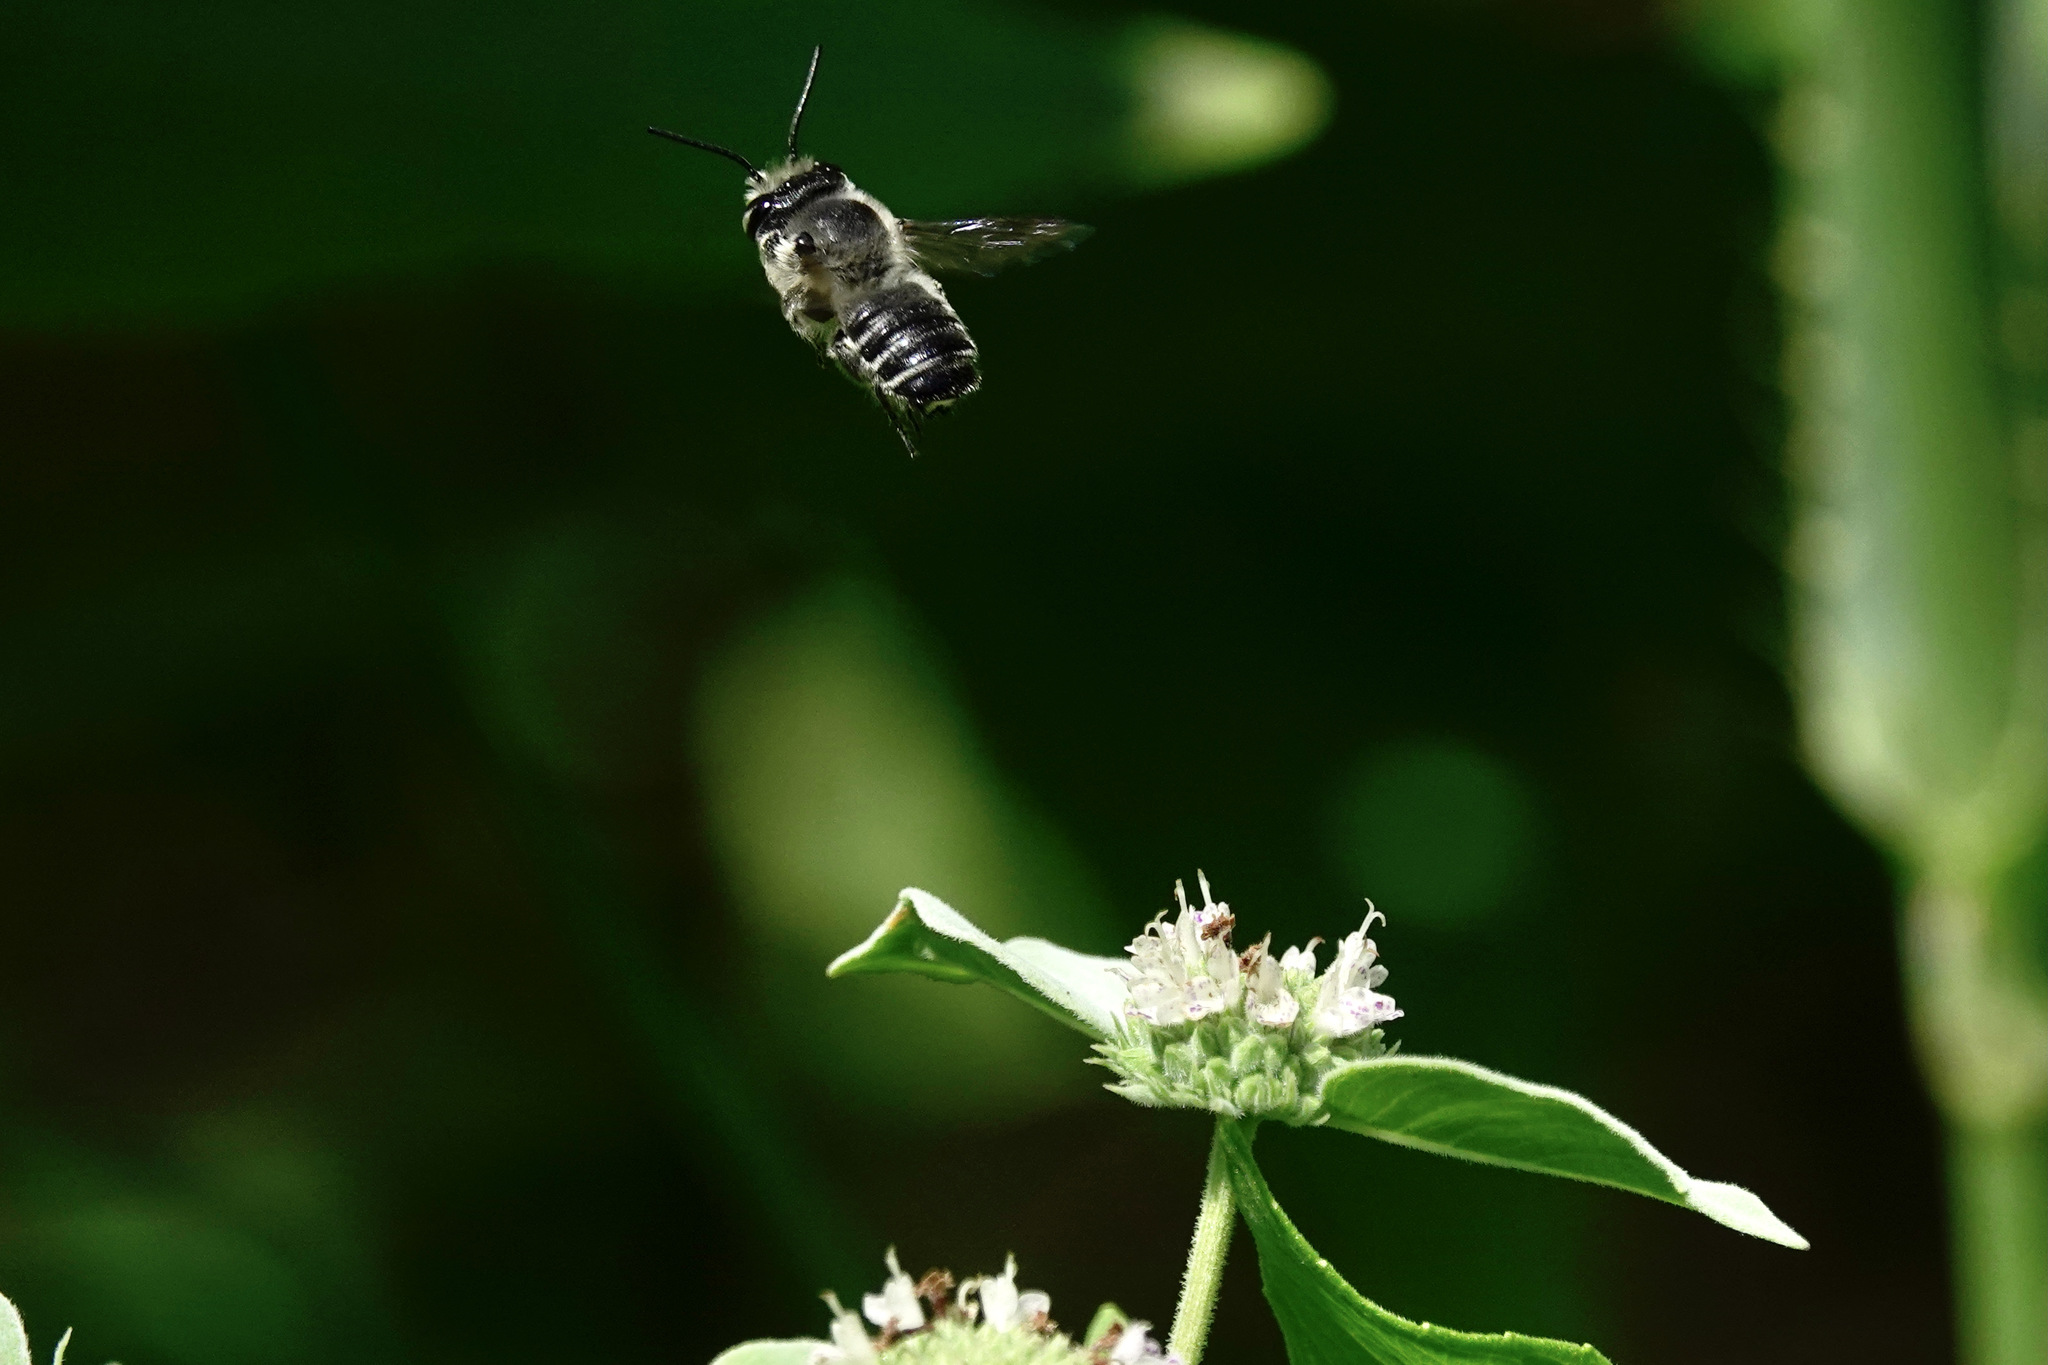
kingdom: Animalia
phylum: Arthropoda
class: Insecta
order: Hymenoptera
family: Megachilidae
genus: Megachile
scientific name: Megachile mendica
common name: Flat-tailed leafcutter
